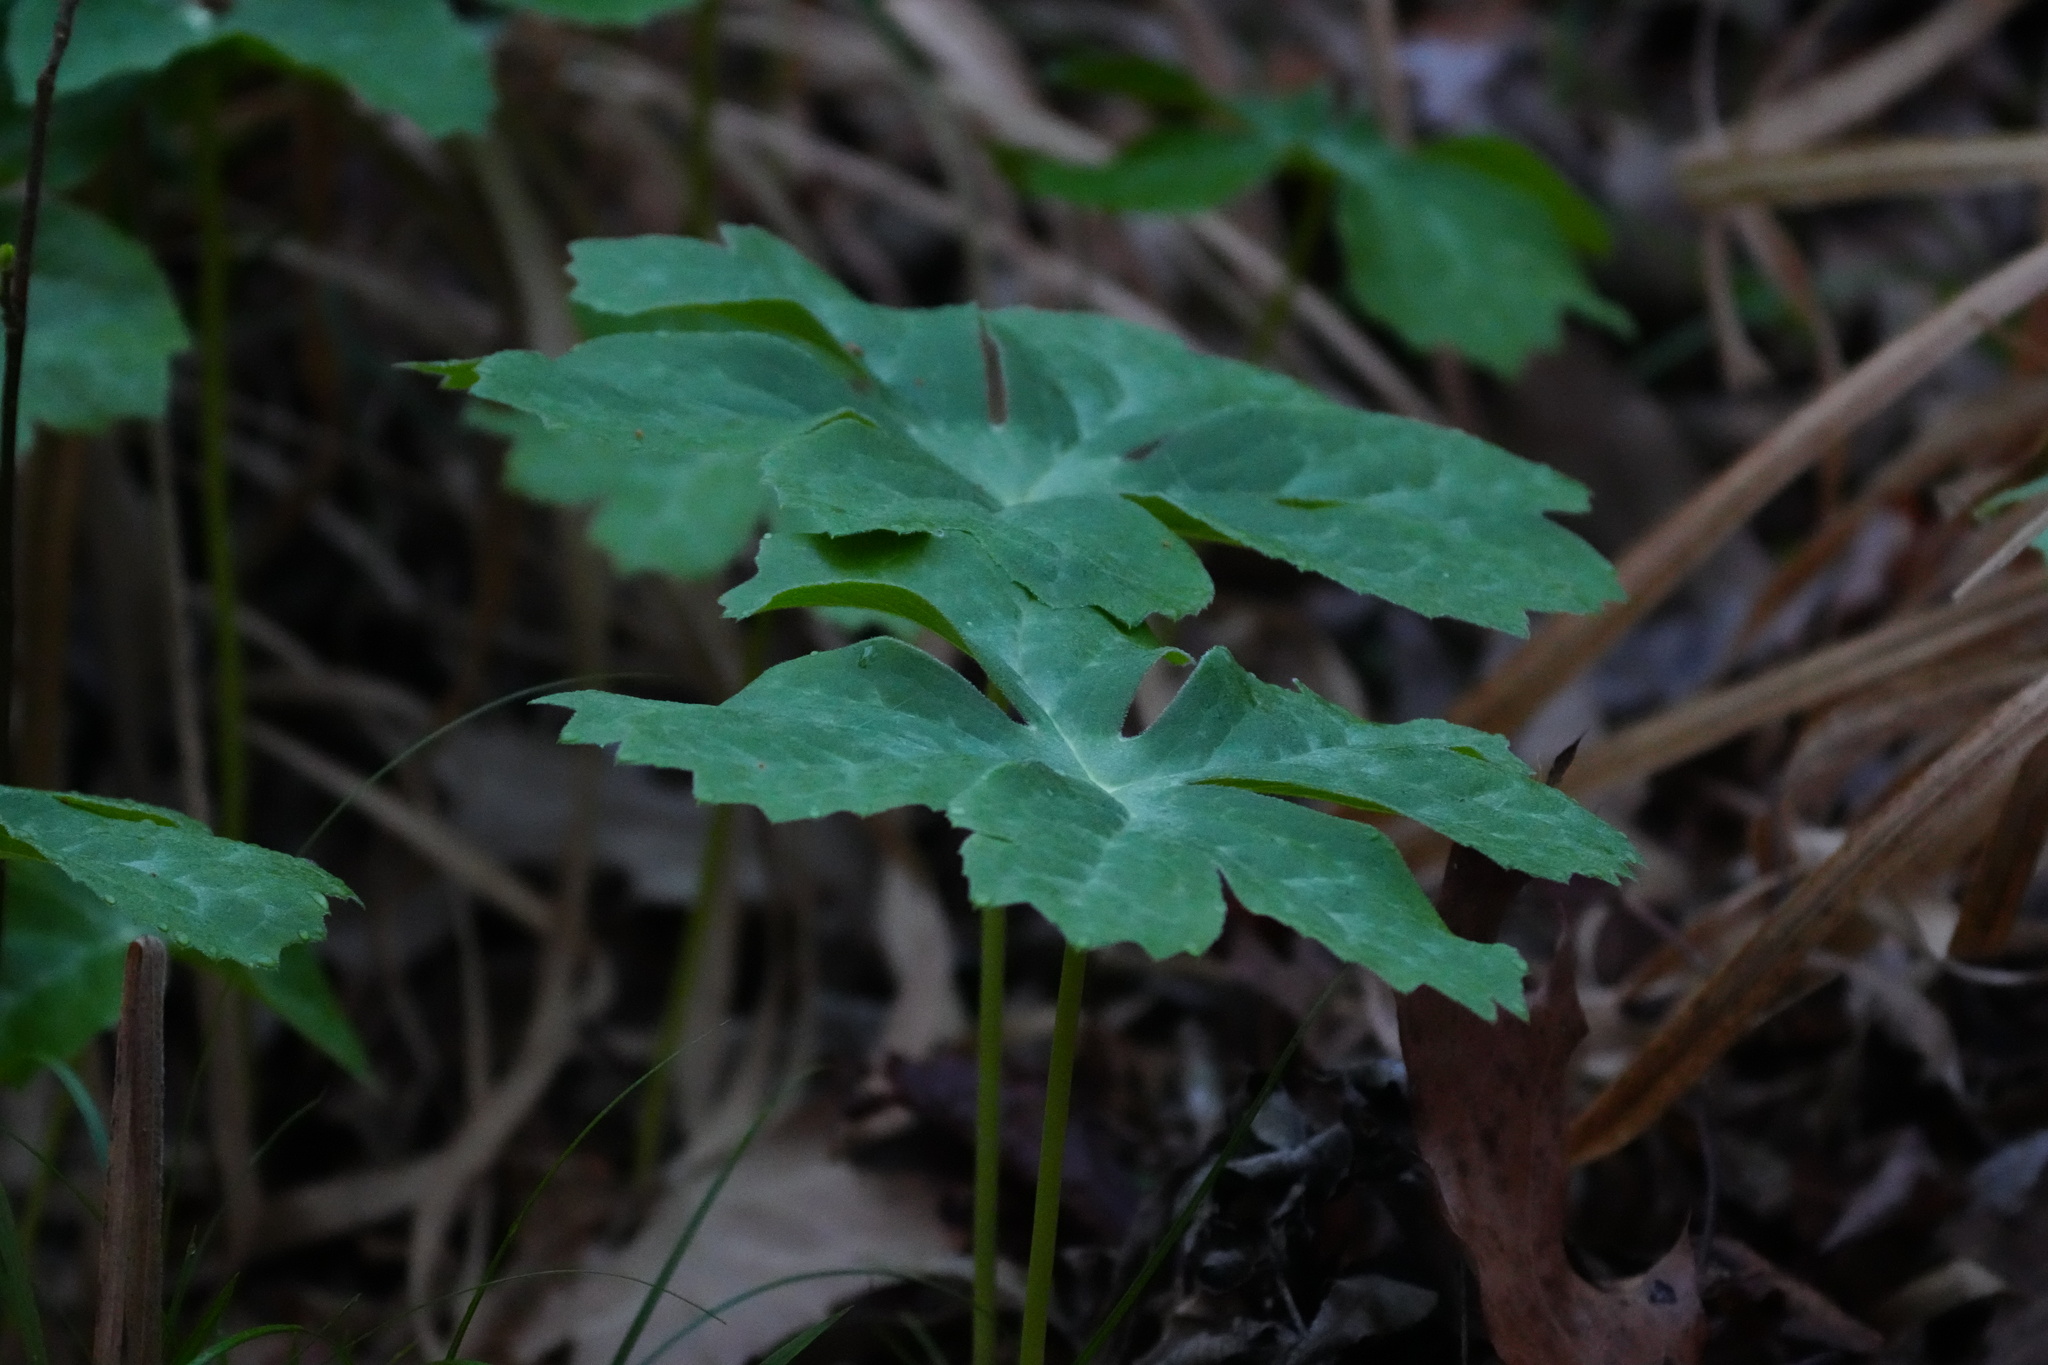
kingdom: Plantae
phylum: Tracheophyta
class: Magnoliopsida
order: Ranunculales
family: Berberidaceae
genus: Podophyllum
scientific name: Podophyllum peltatum
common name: Wild mandrake
